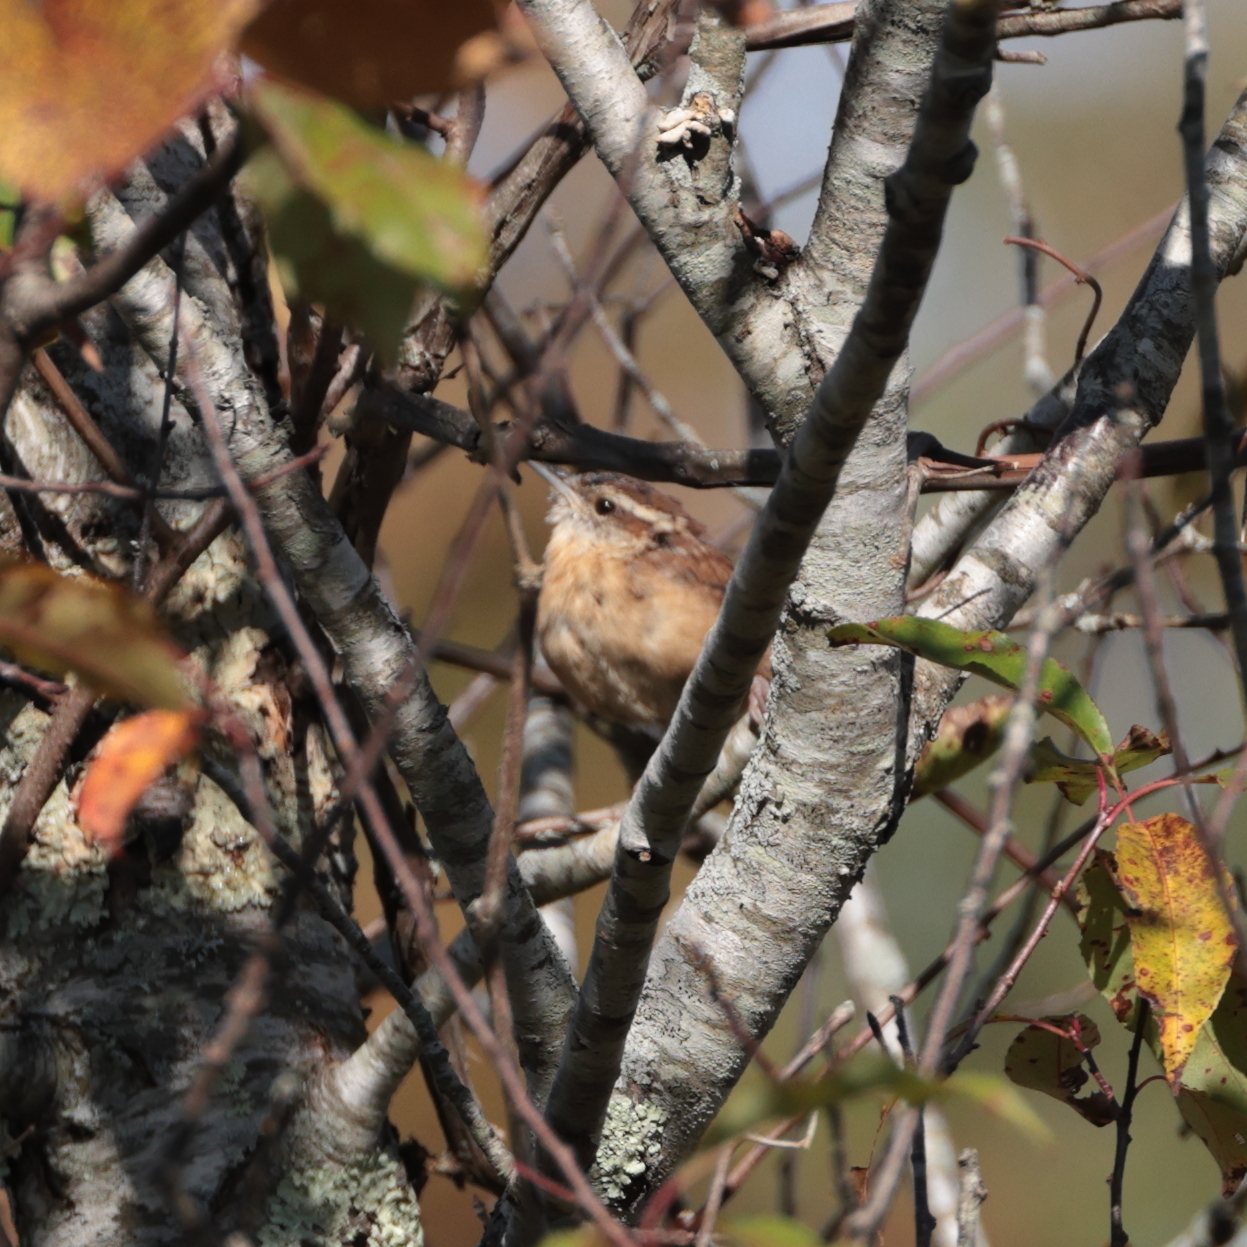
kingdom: Animalia
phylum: Chordata
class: Aves
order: Passeriformes
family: Troglodytidae
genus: Thryothorus
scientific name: Thryothorus ludovicianus
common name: Carolina wren
